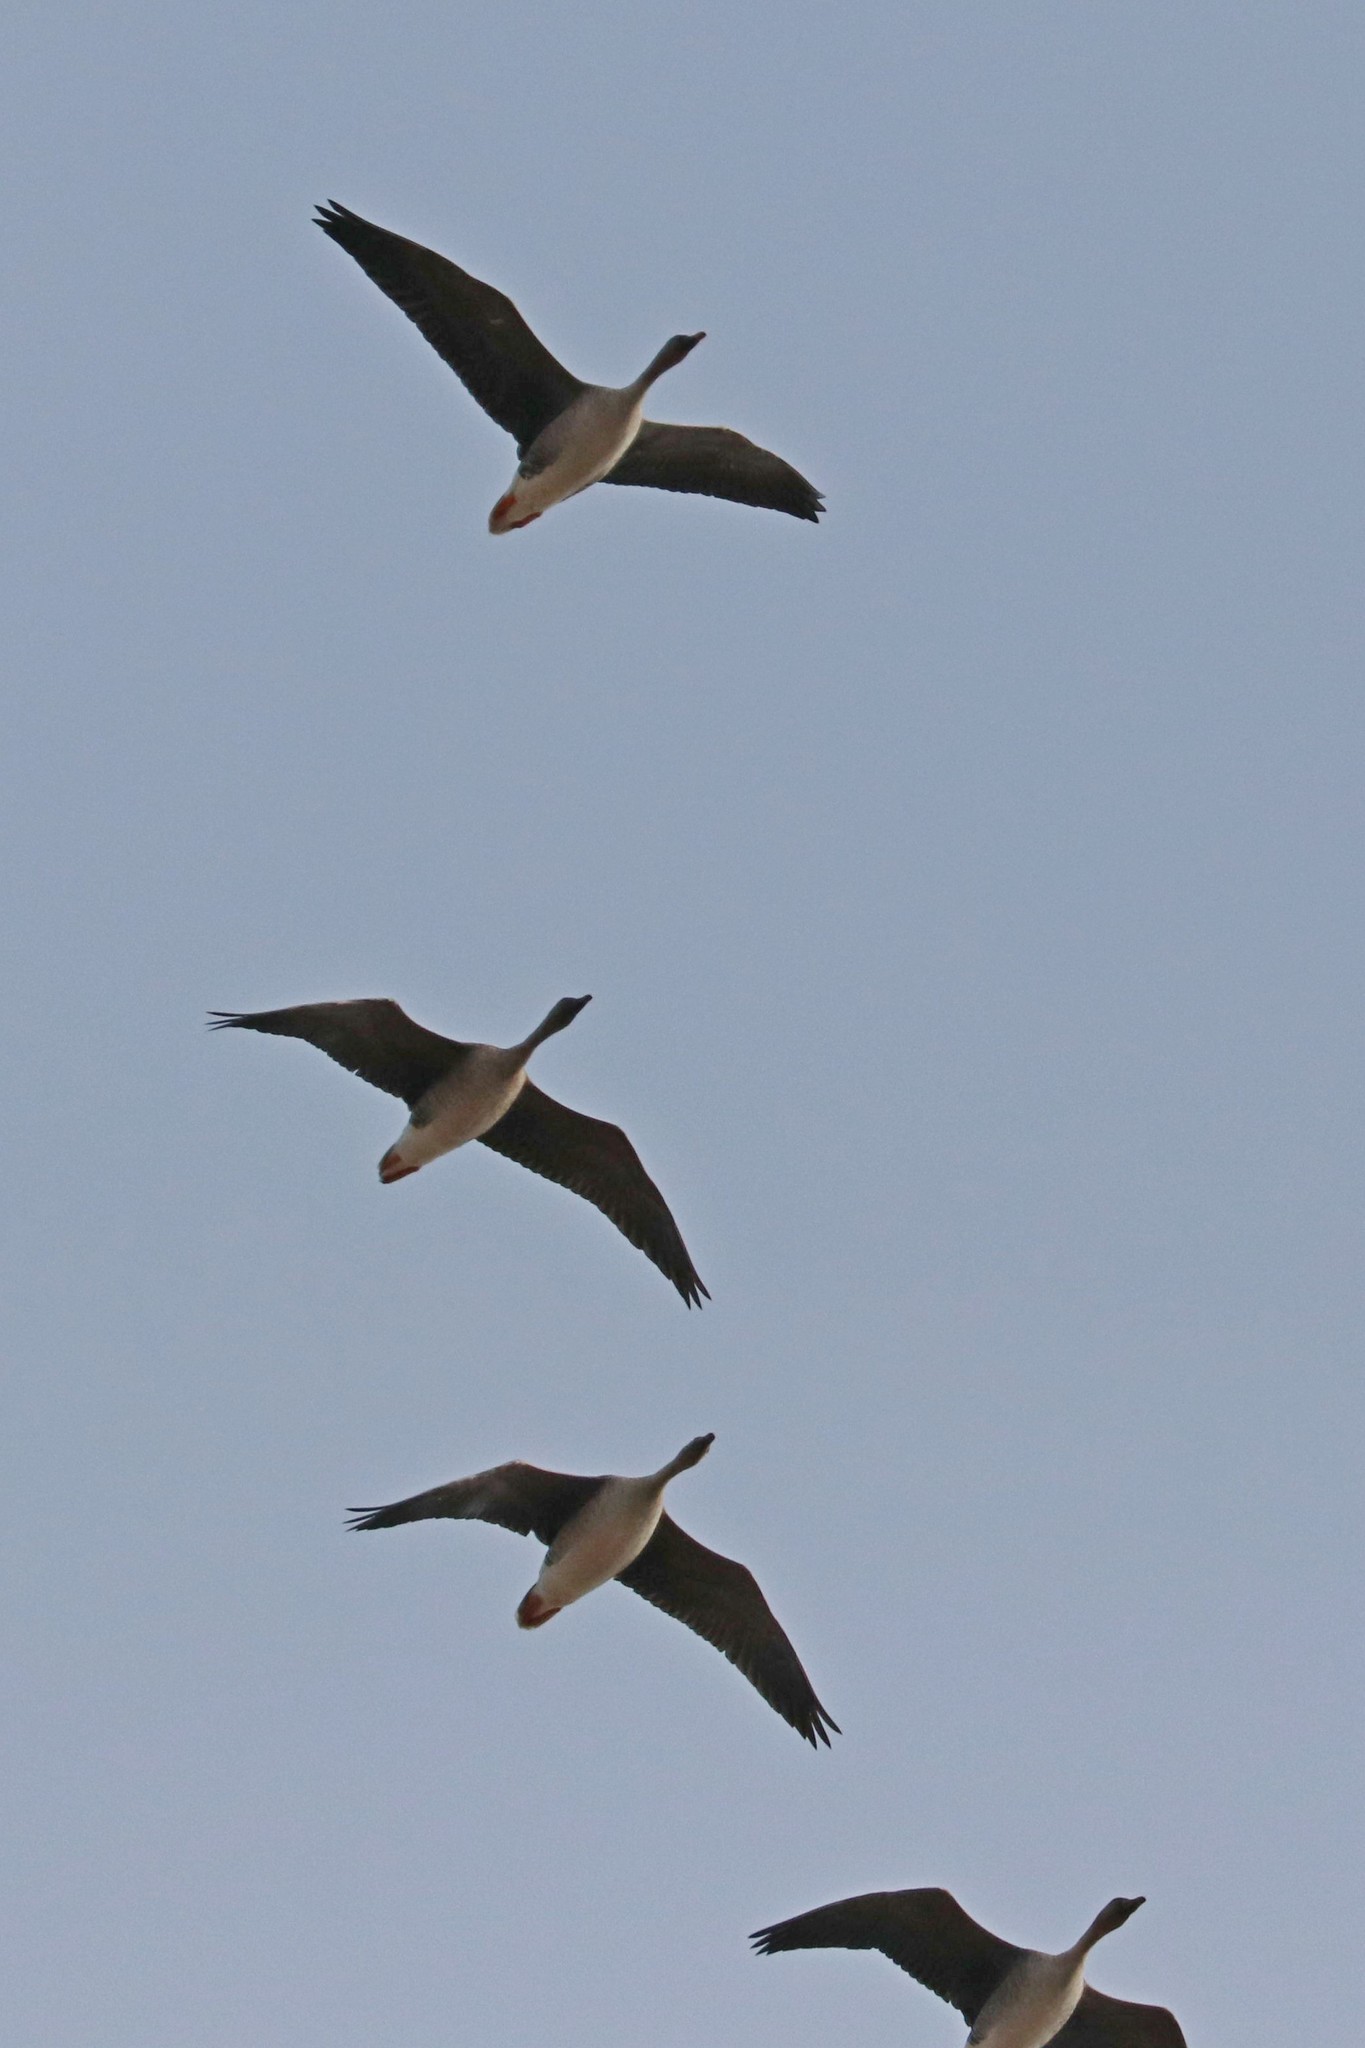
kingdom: Animalia
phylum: Chordata
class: Aves
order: Anseriformes
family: Anatidae
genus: Anser
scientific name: Anser fabalis
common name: Bean goose
